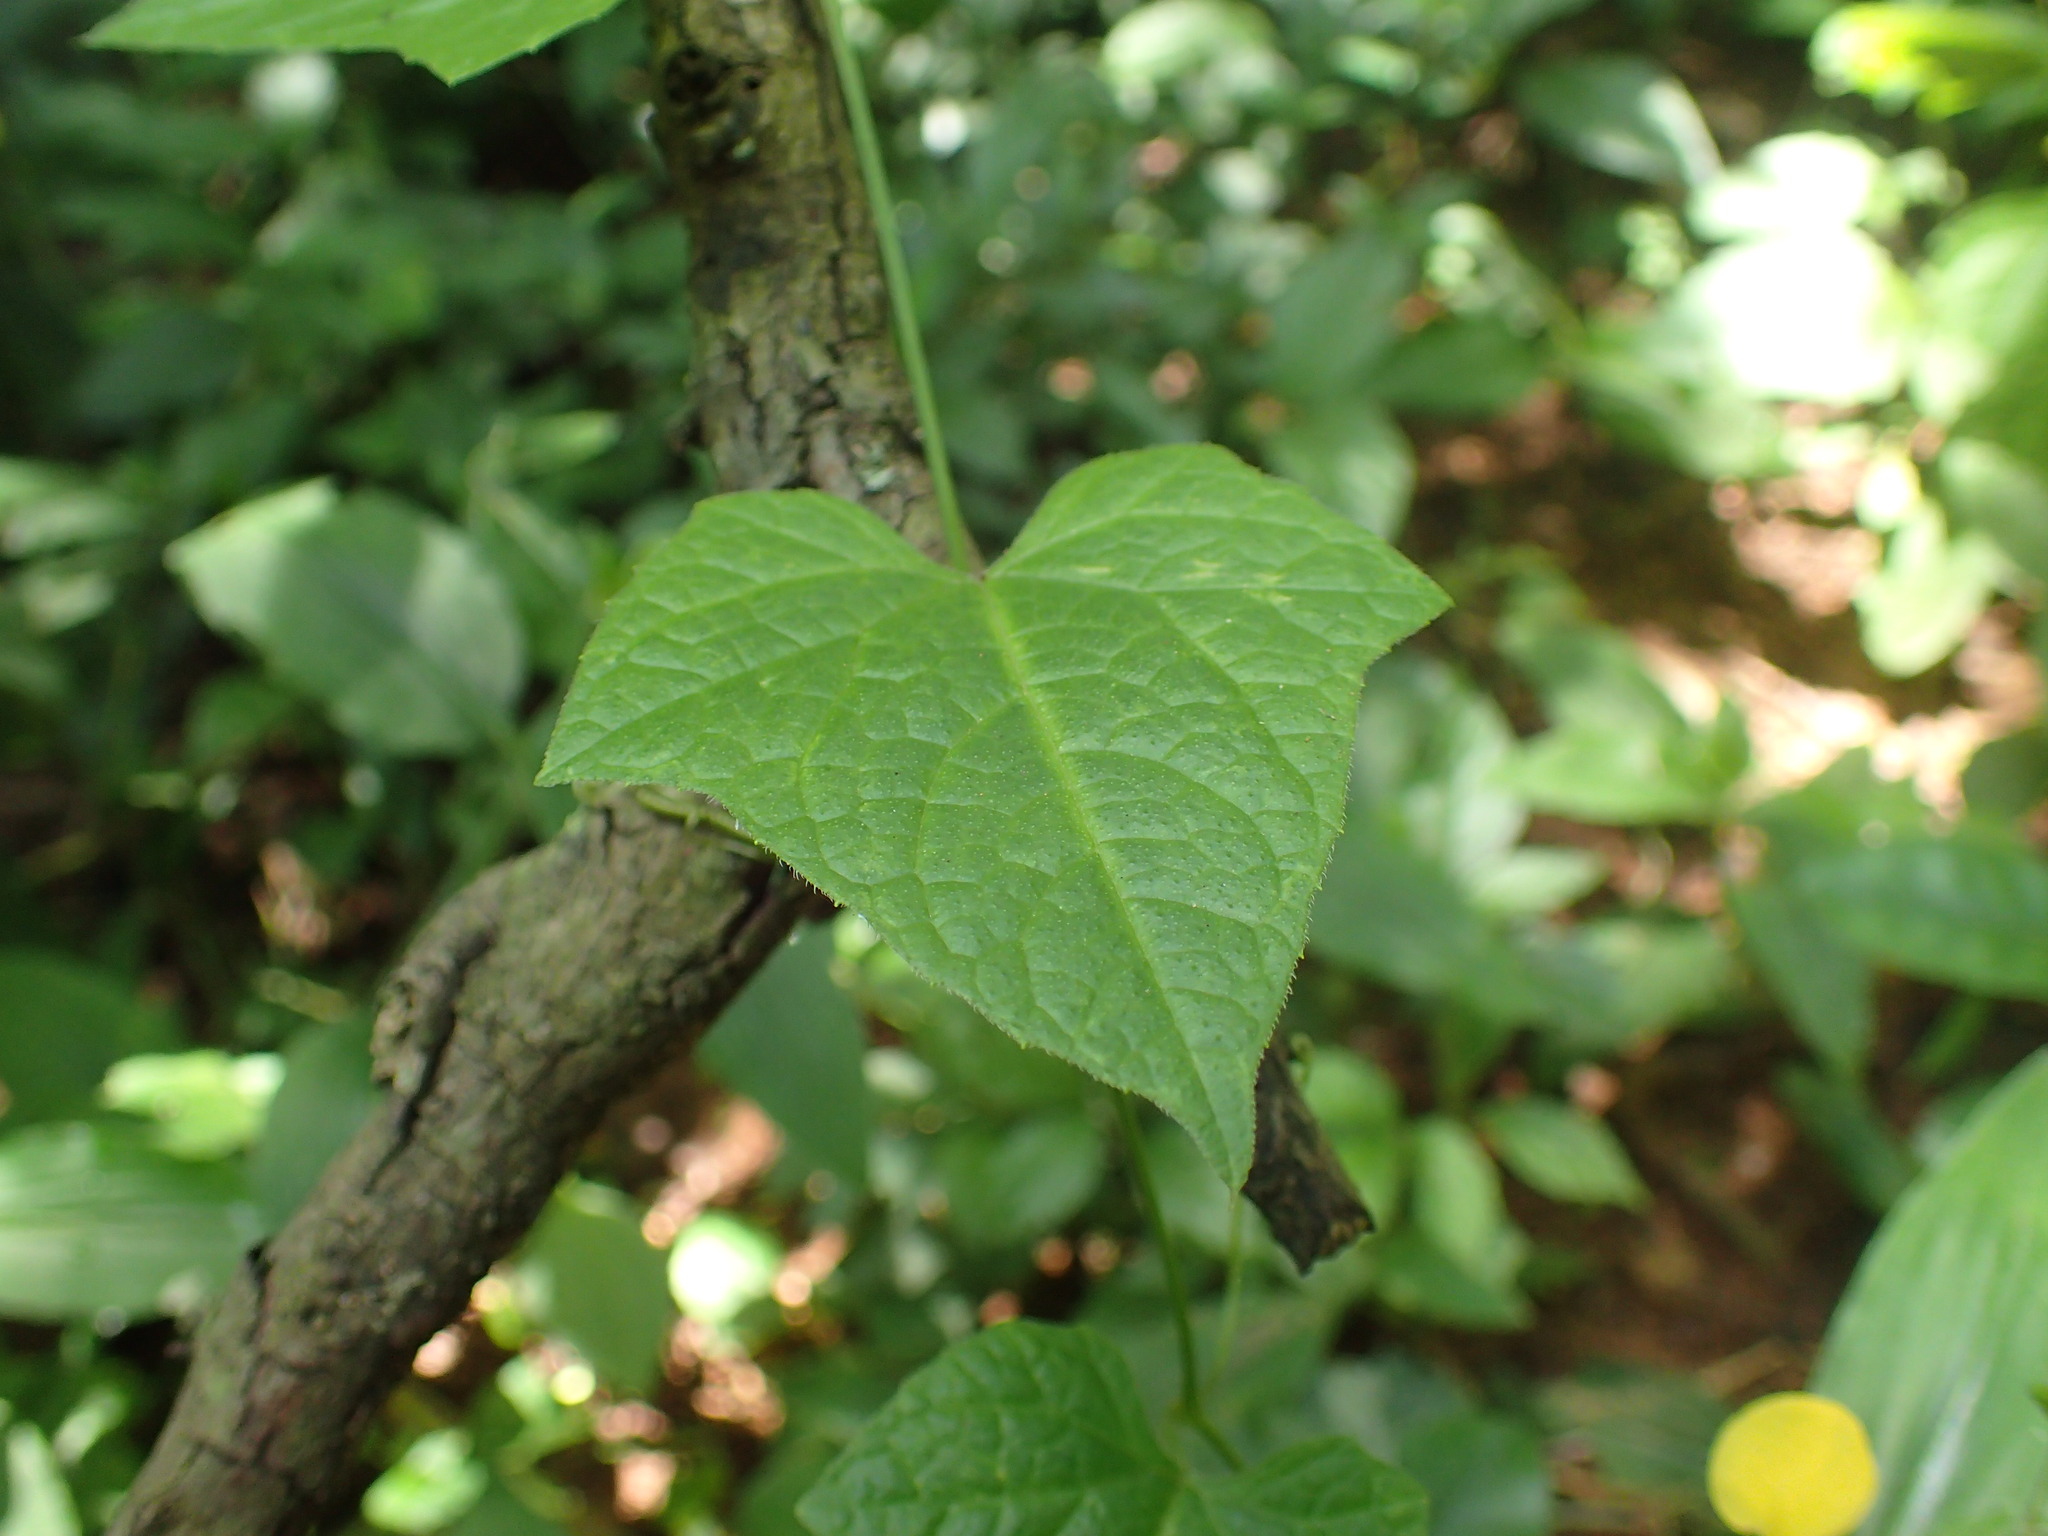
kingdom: Plantae
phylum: Tracheophyta
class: Magnoliopsida
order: Cucurbitales
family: Cucurbitaceae
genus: Zehneria
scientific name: Zehneria scabra
